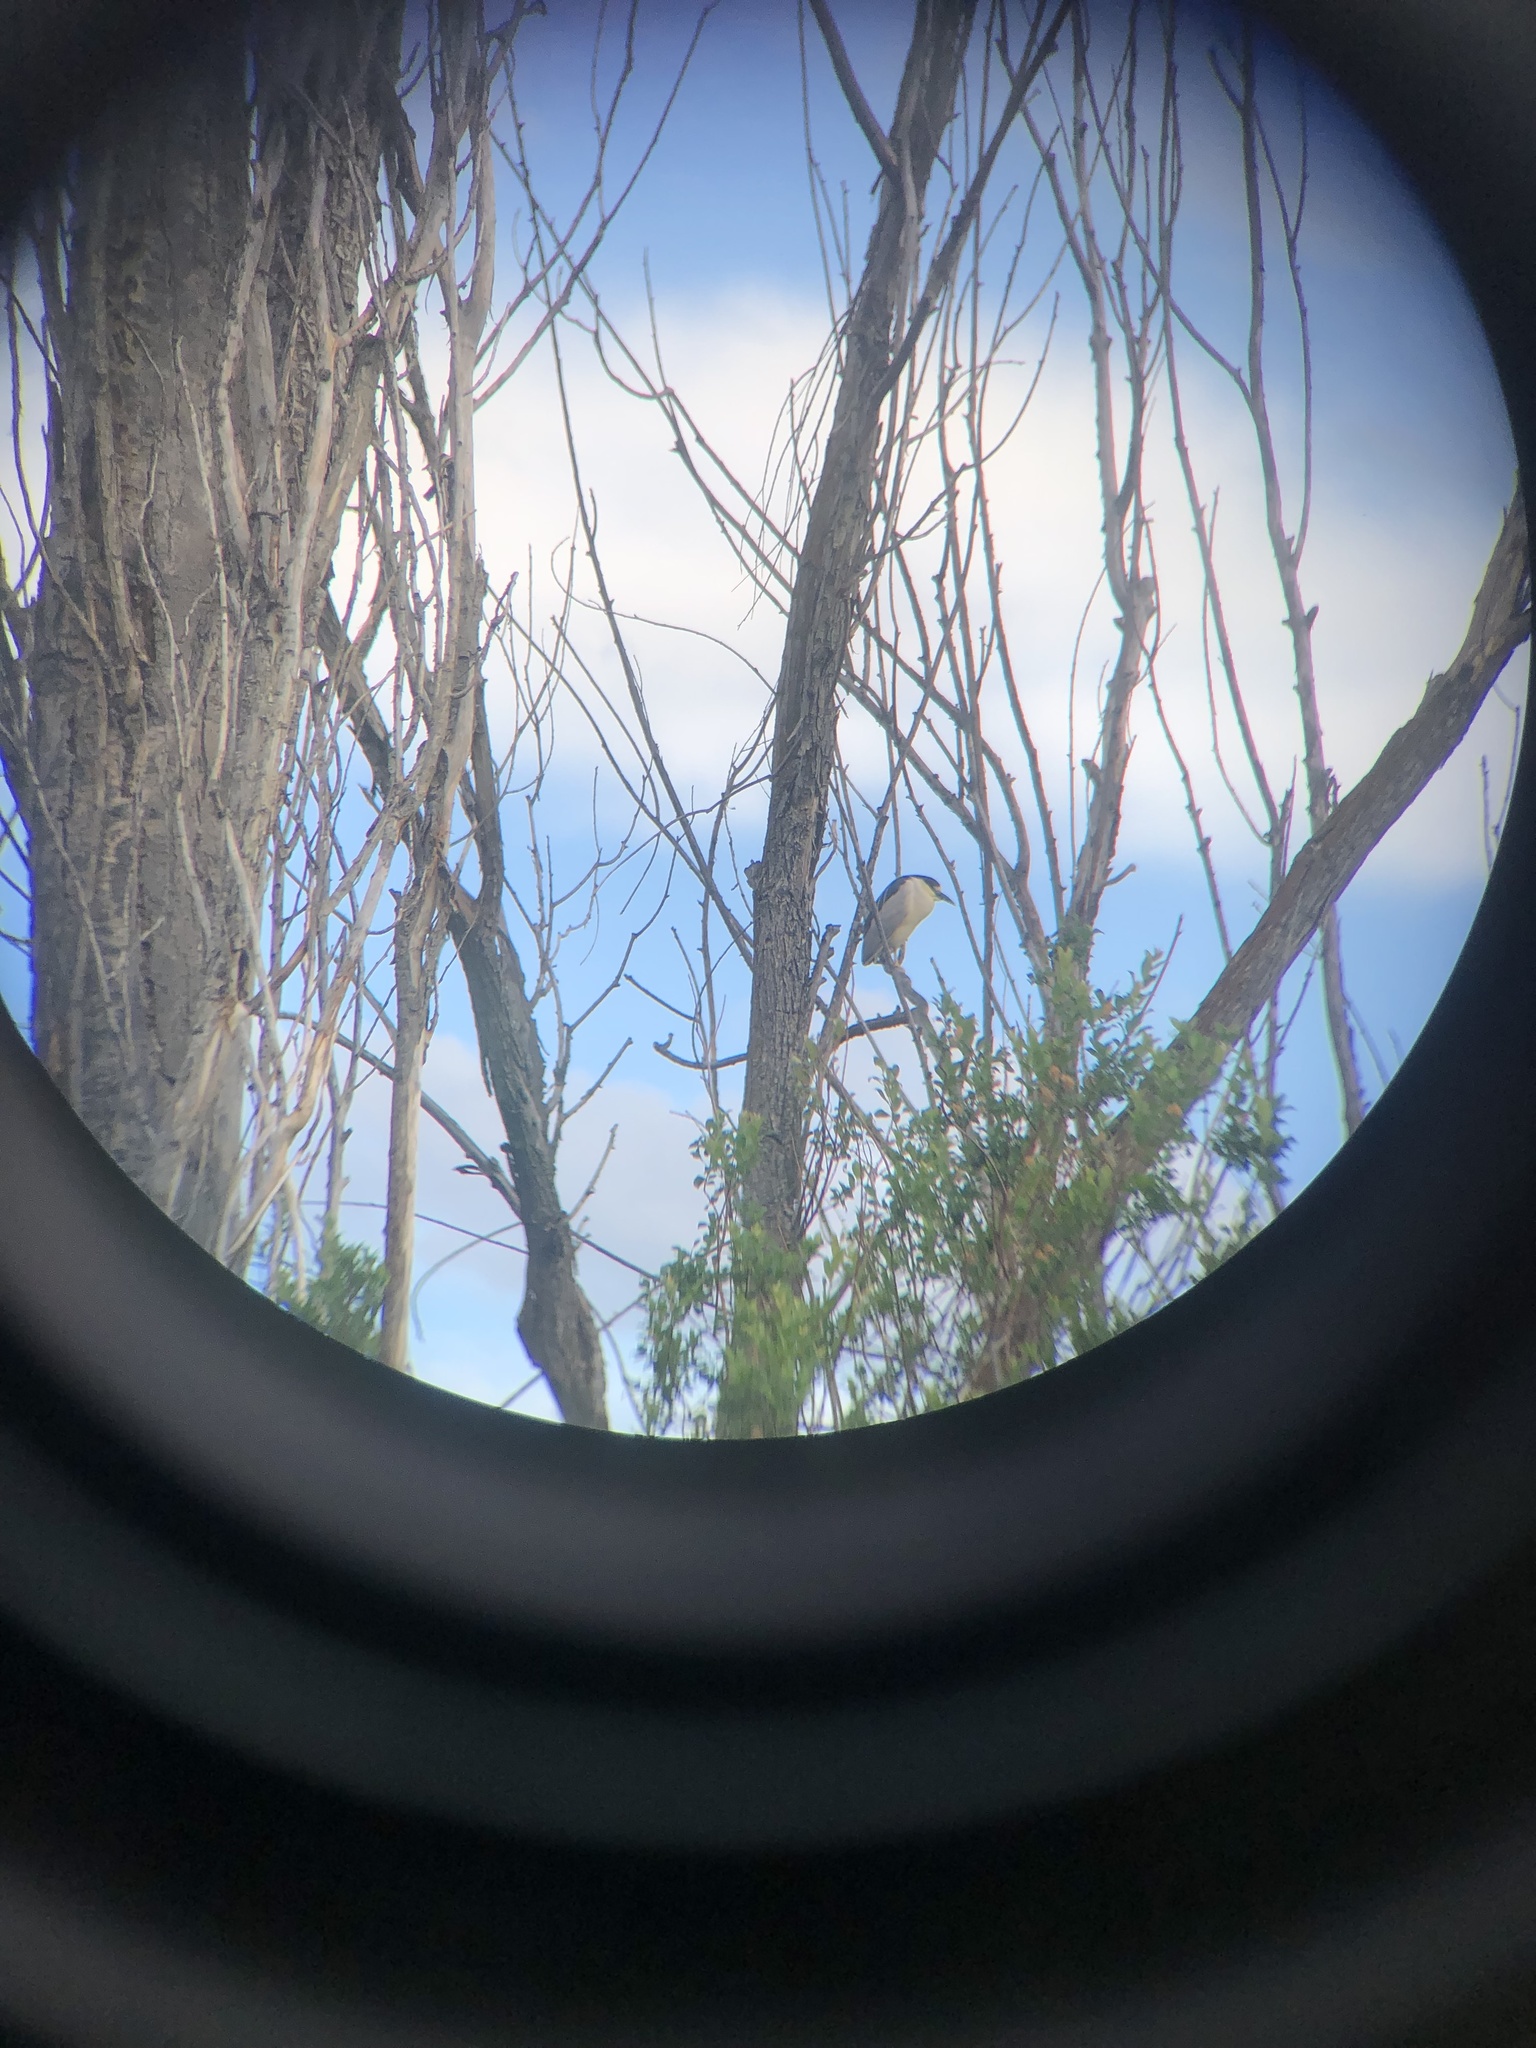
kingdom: Animalia
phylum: Chordata
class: Aves
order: Pelecaniformes
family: Ardeidae
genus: Nycticorax
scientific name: Nycticorax nycticorax
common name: Black-crowned night heron
